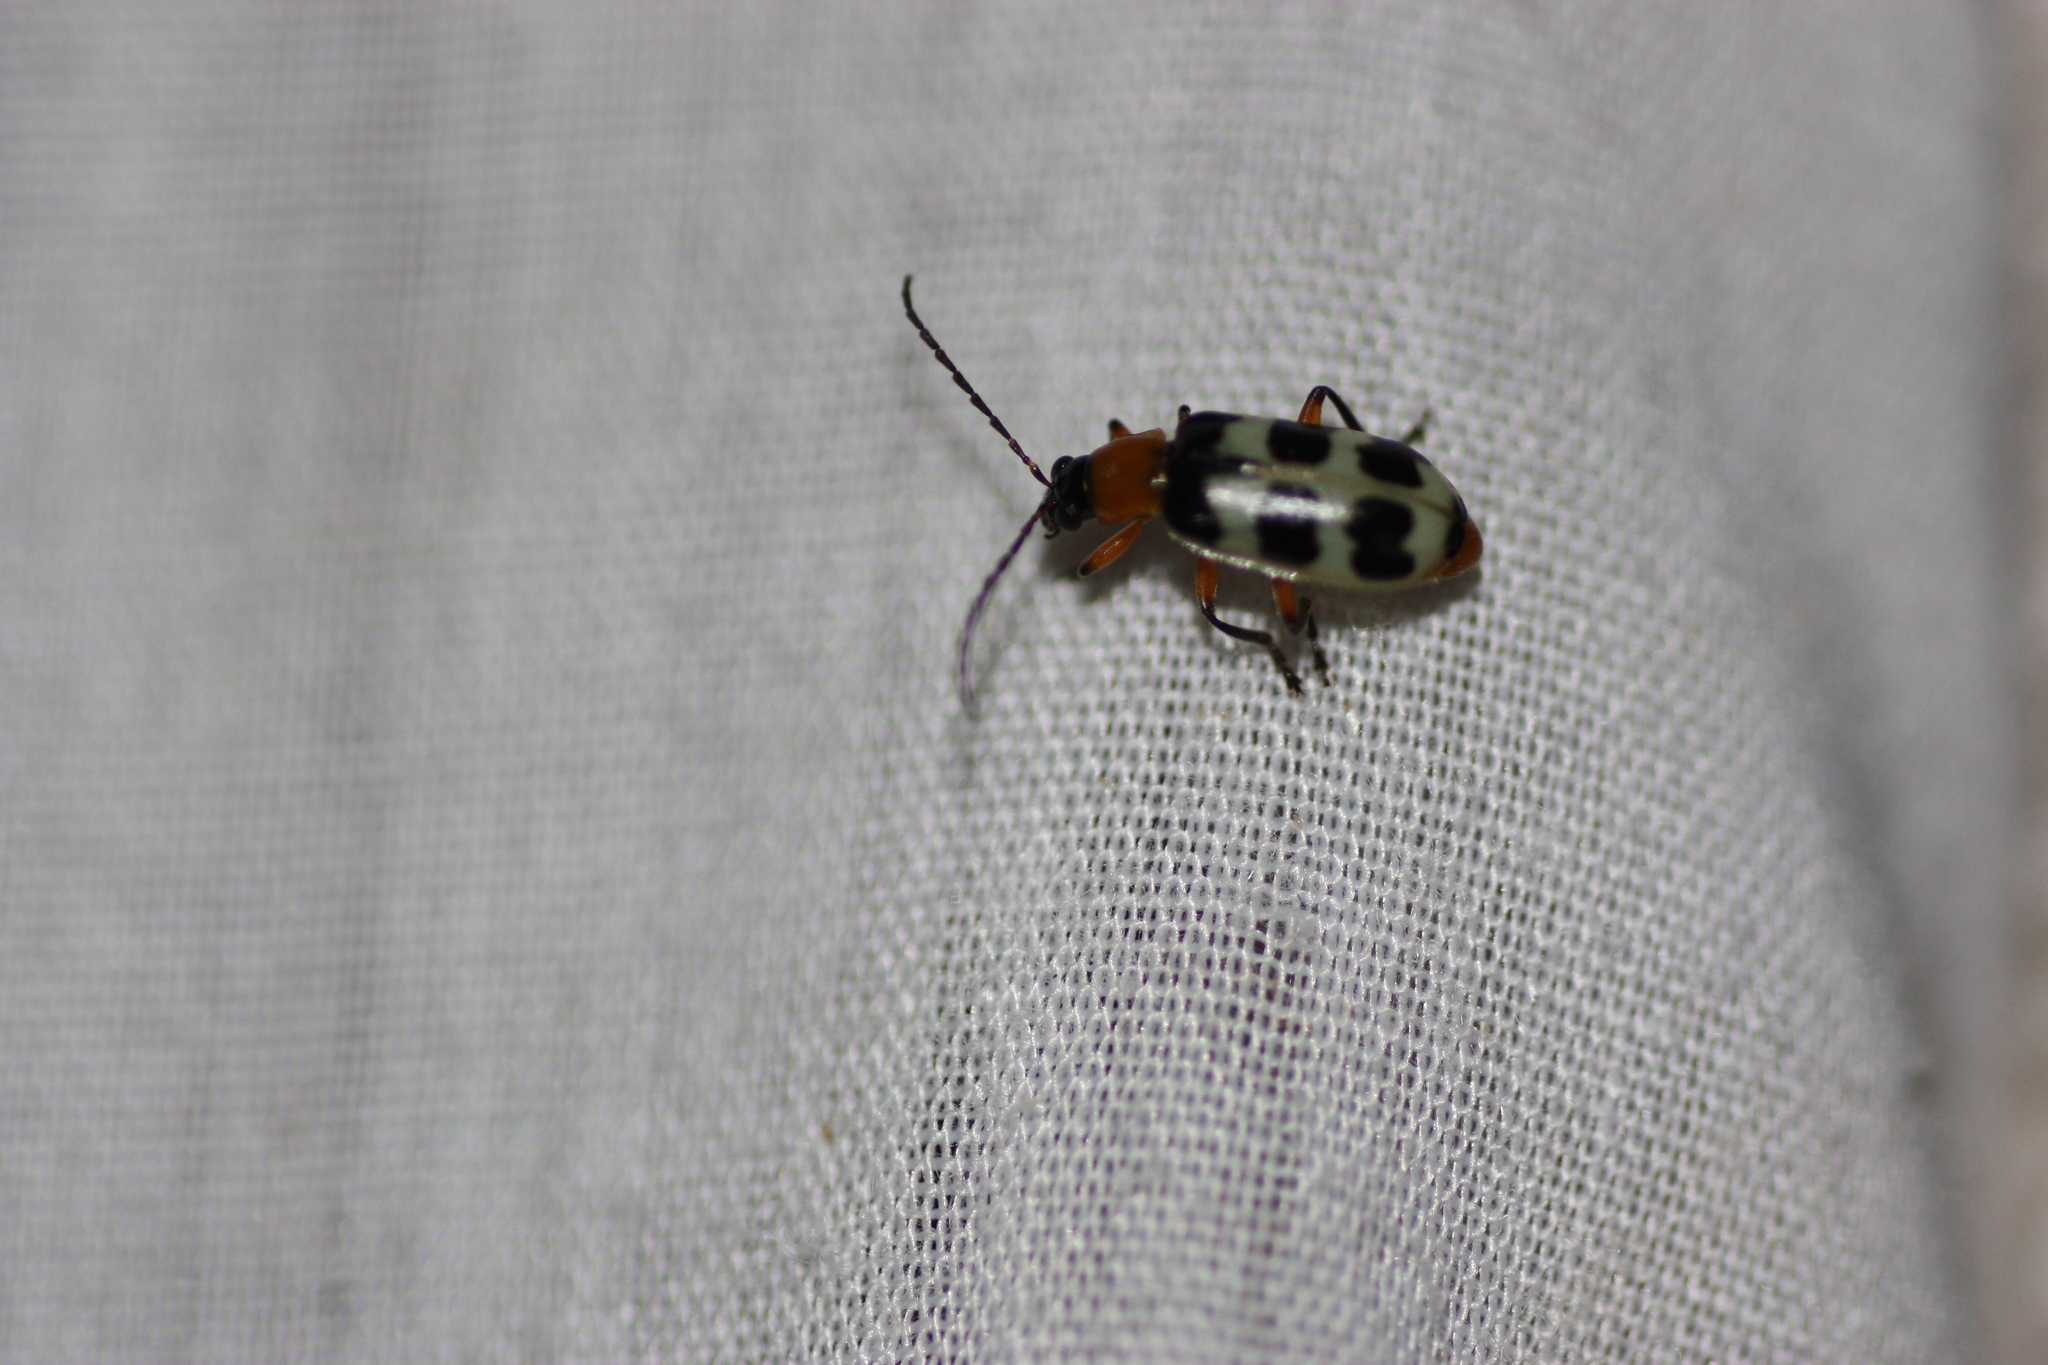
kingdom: Animalia
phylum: Arthropoda
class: Insecta
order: Coleoptera
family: Chrysomelidae
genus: Paranapiacaba
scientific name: Paranapiacaba tricincta
